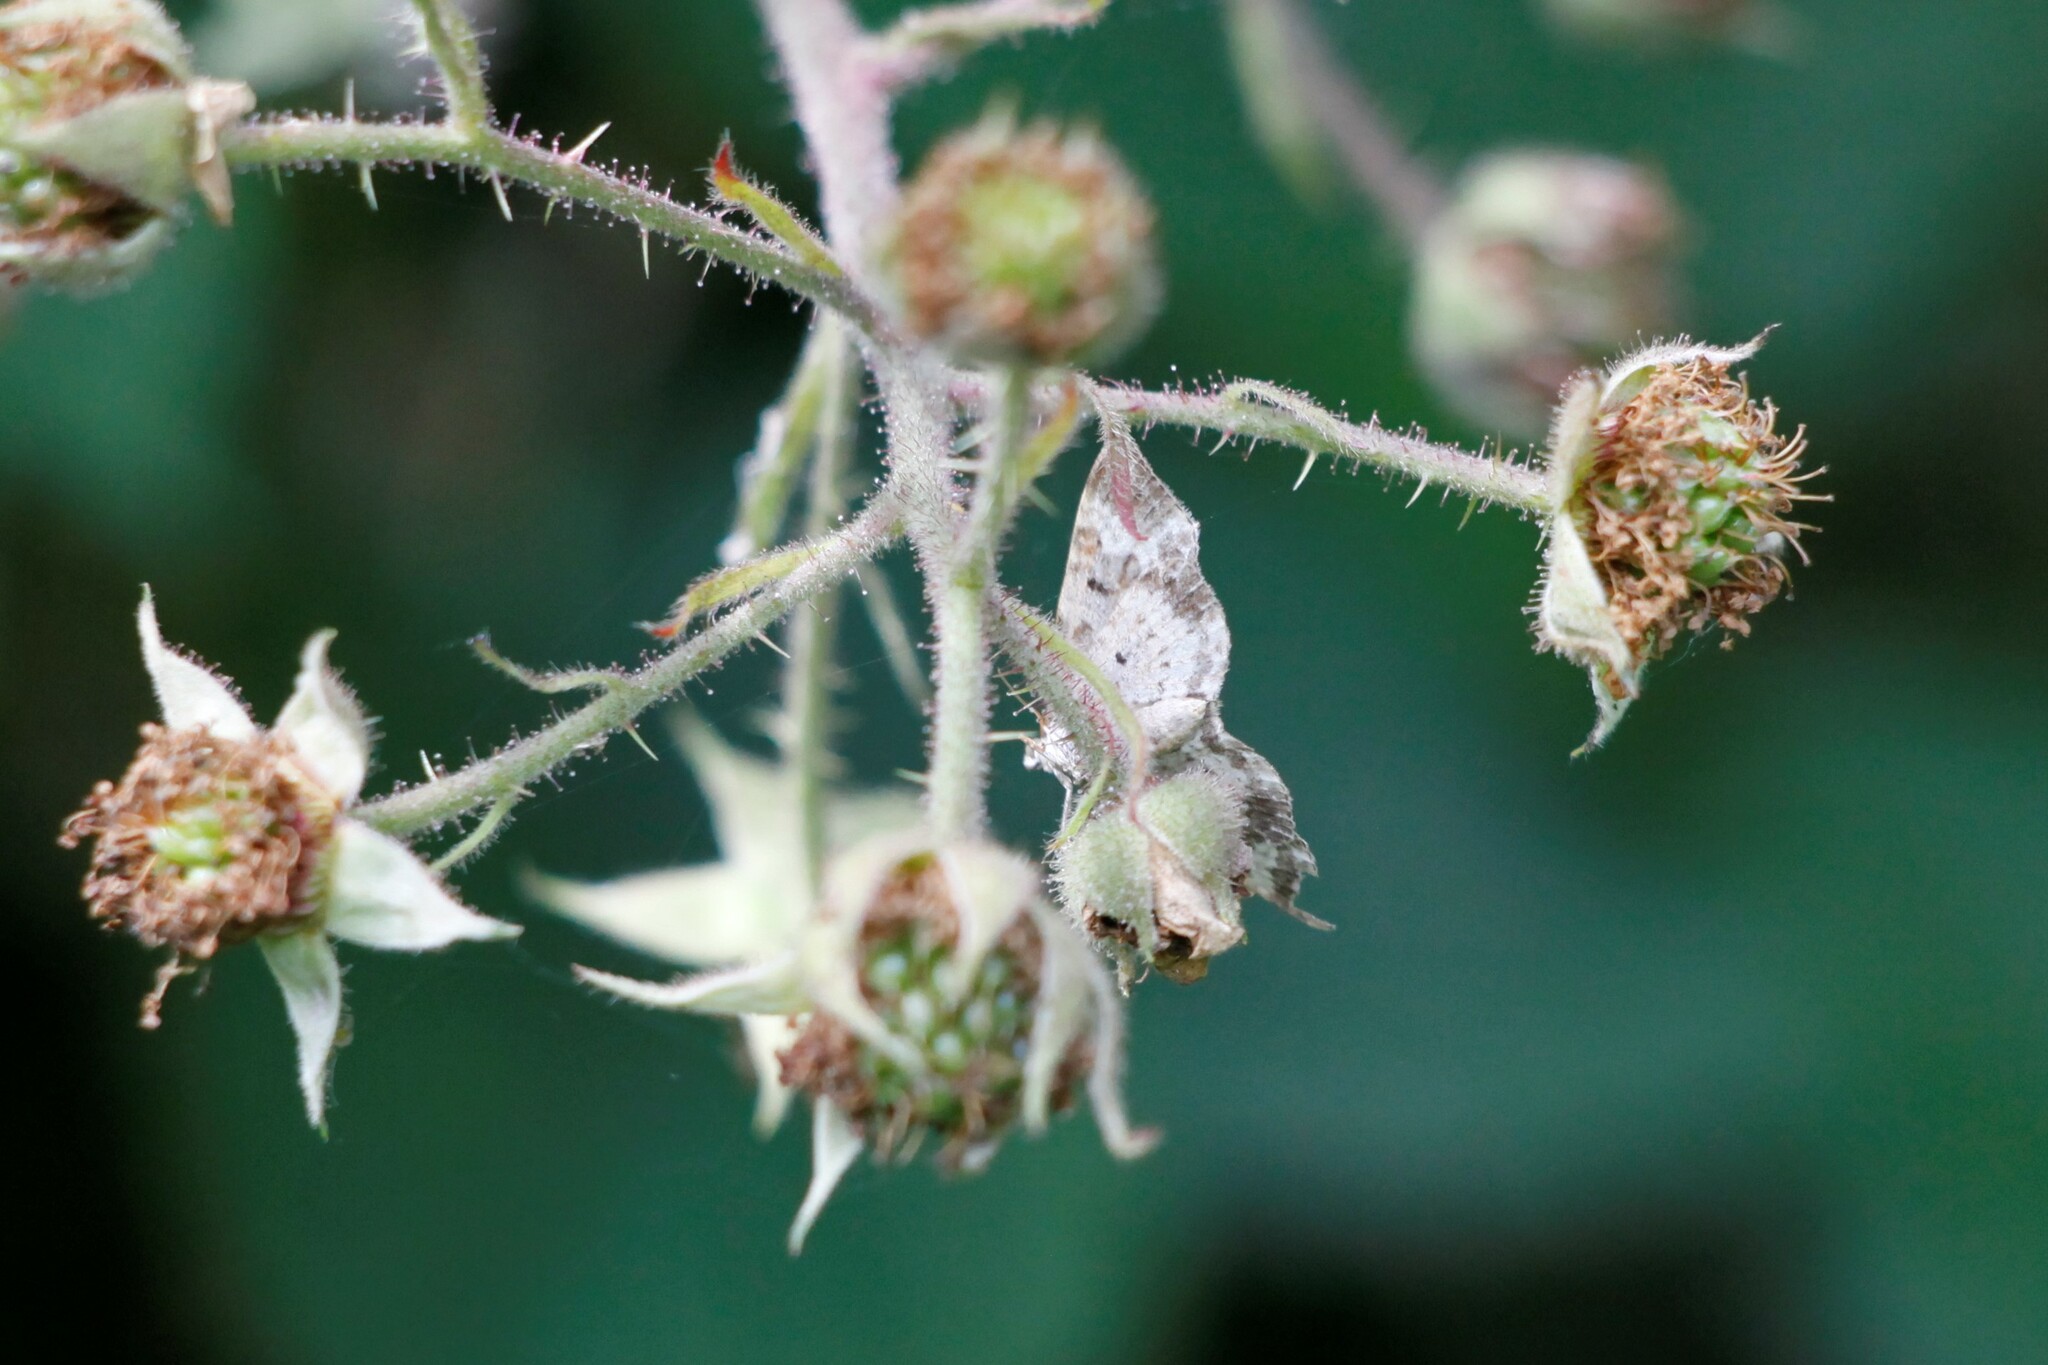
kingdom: Animalia
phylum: Arthropoda
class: Insecta
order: Lepidoptera
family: Geometridae
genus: Epirrhoe
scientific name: Epirrhoe alternata
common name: Common carpet
